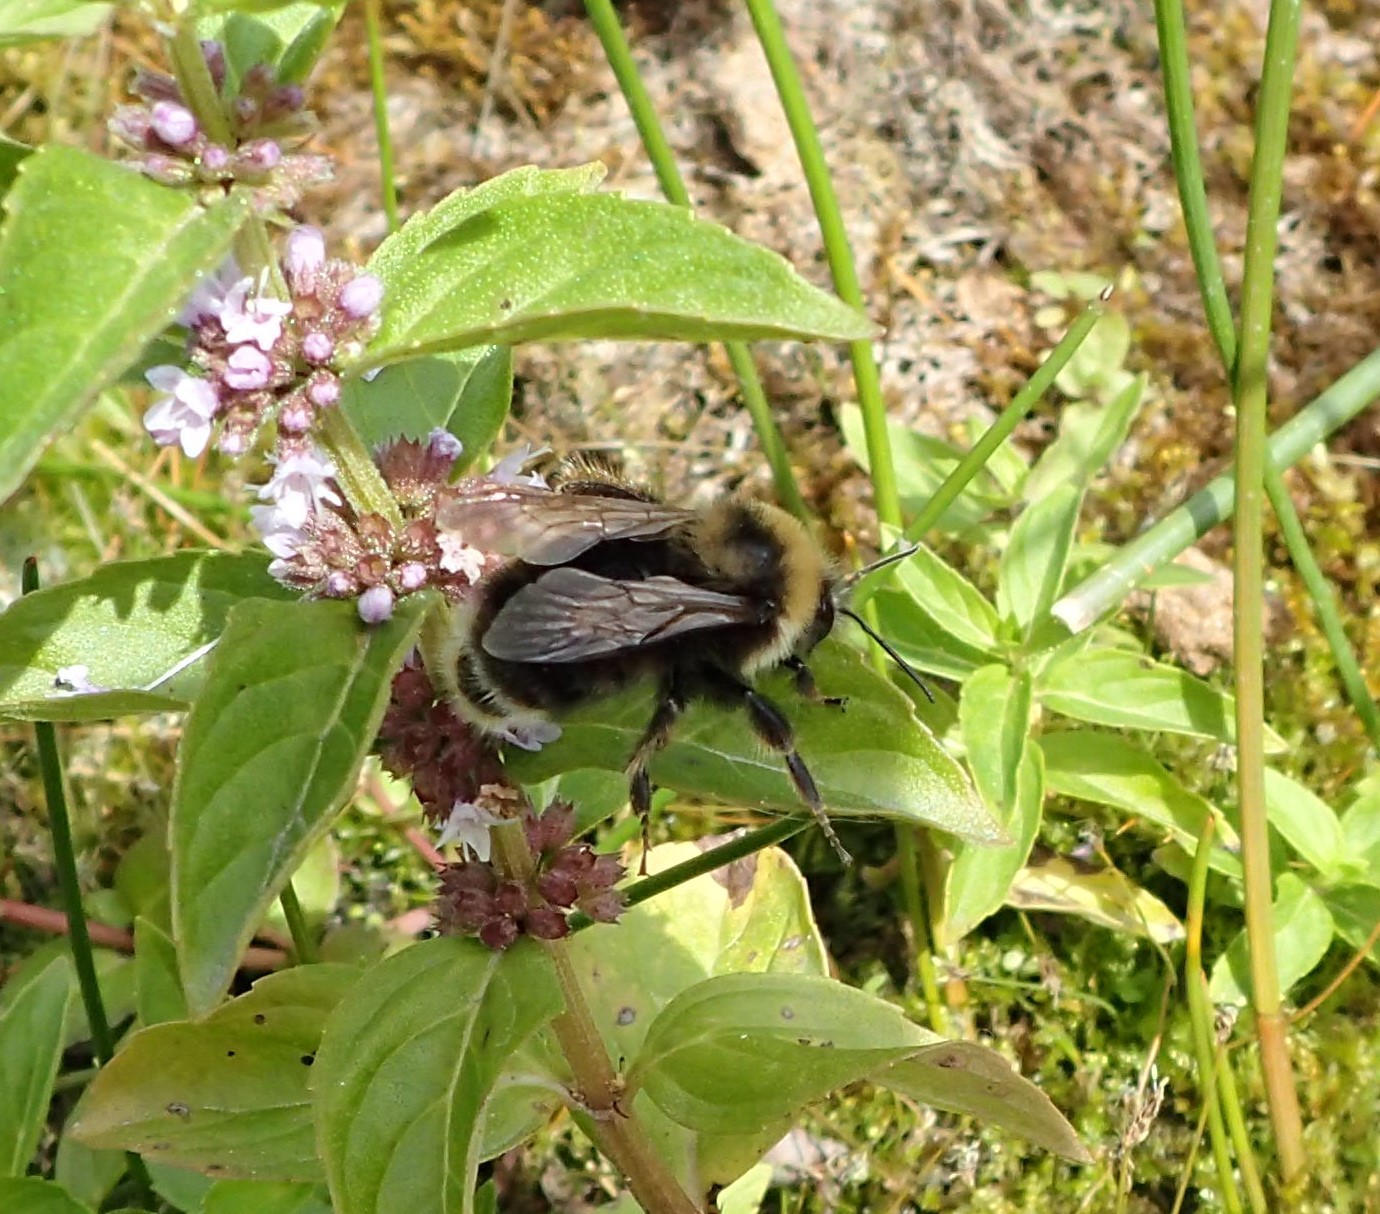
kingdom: Animalia
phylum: Arthropoda
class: Insecta
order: Hymenoptera
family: Apidae
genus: Bombus
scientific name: Bombus occidentalis
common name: Western bumble bee
